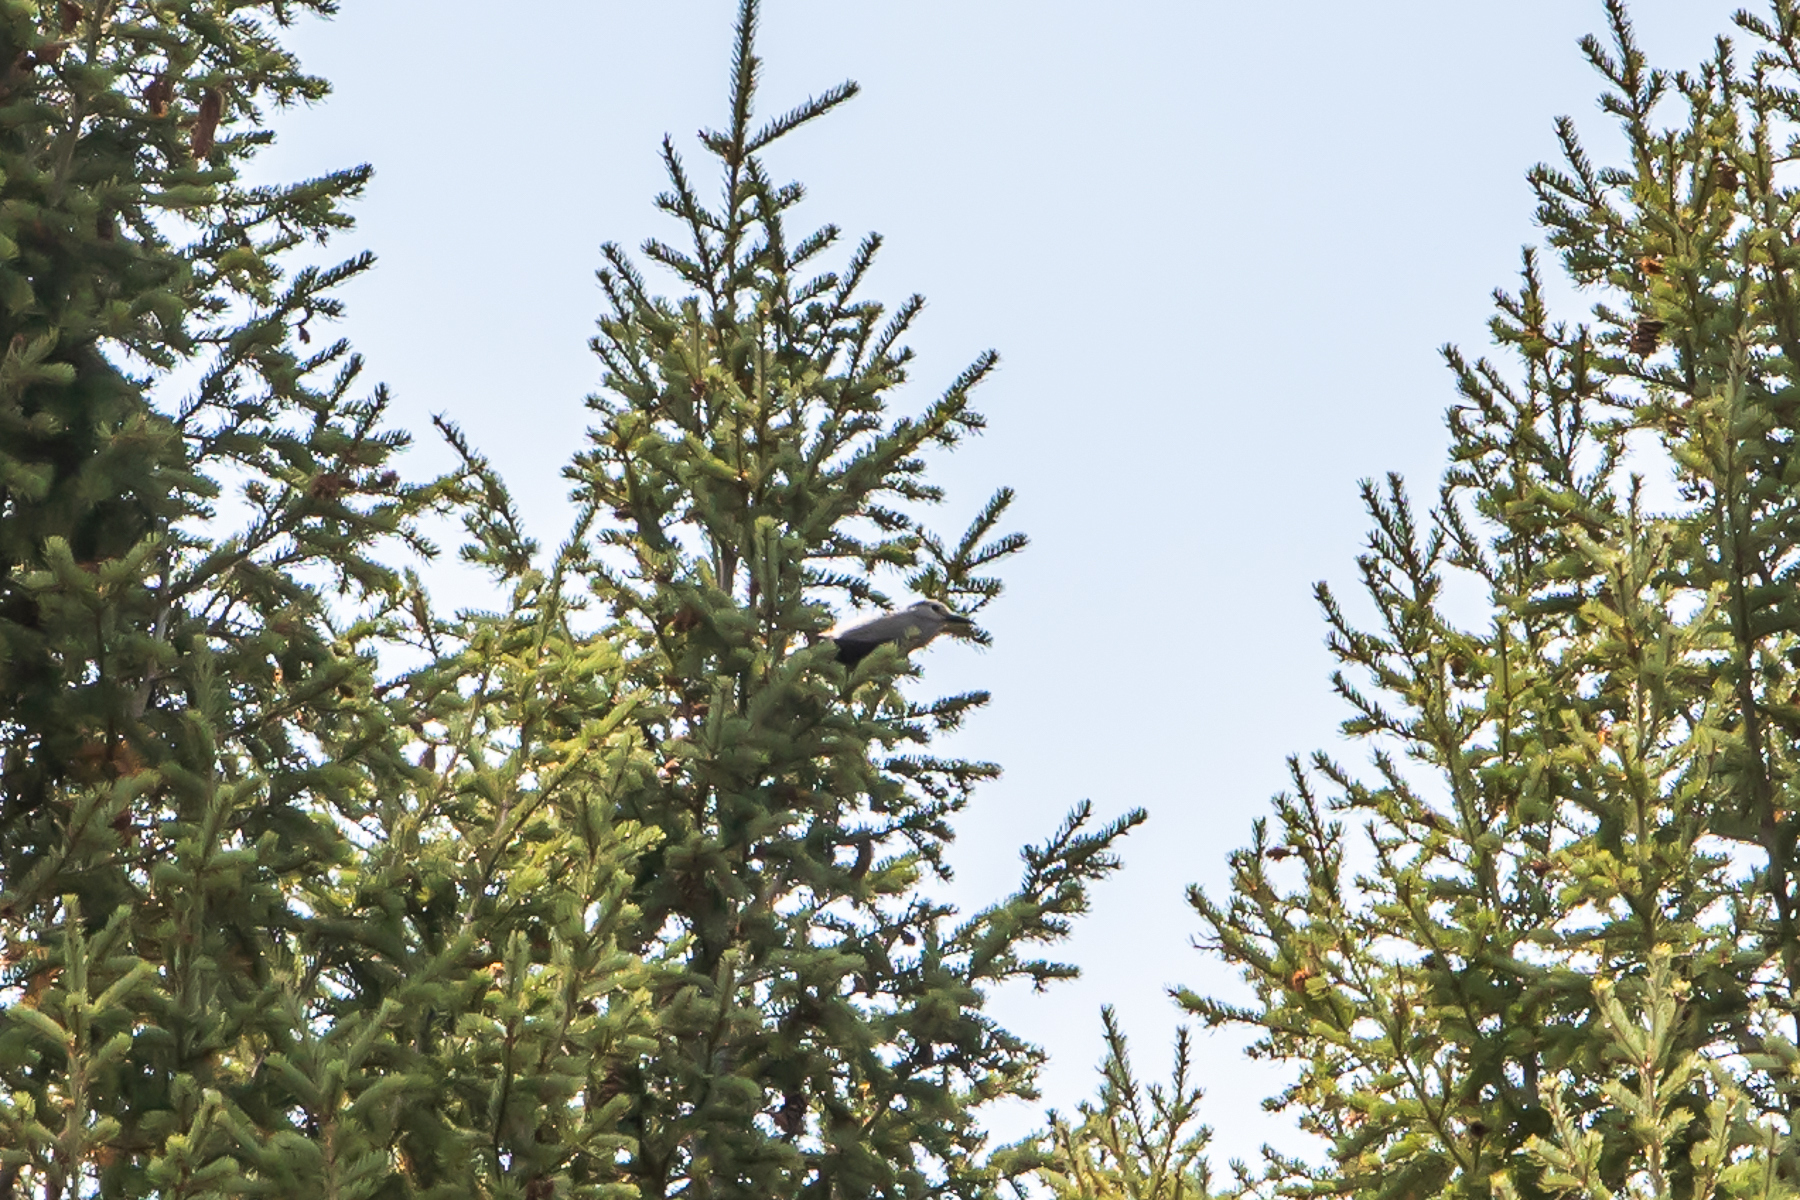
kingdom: Animalia
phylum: Chordata
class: Aves
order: Passeriformes
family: Corvidae
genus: Nucifraga
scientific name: Nucifraga columbiana
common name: Clark's nutcracker
